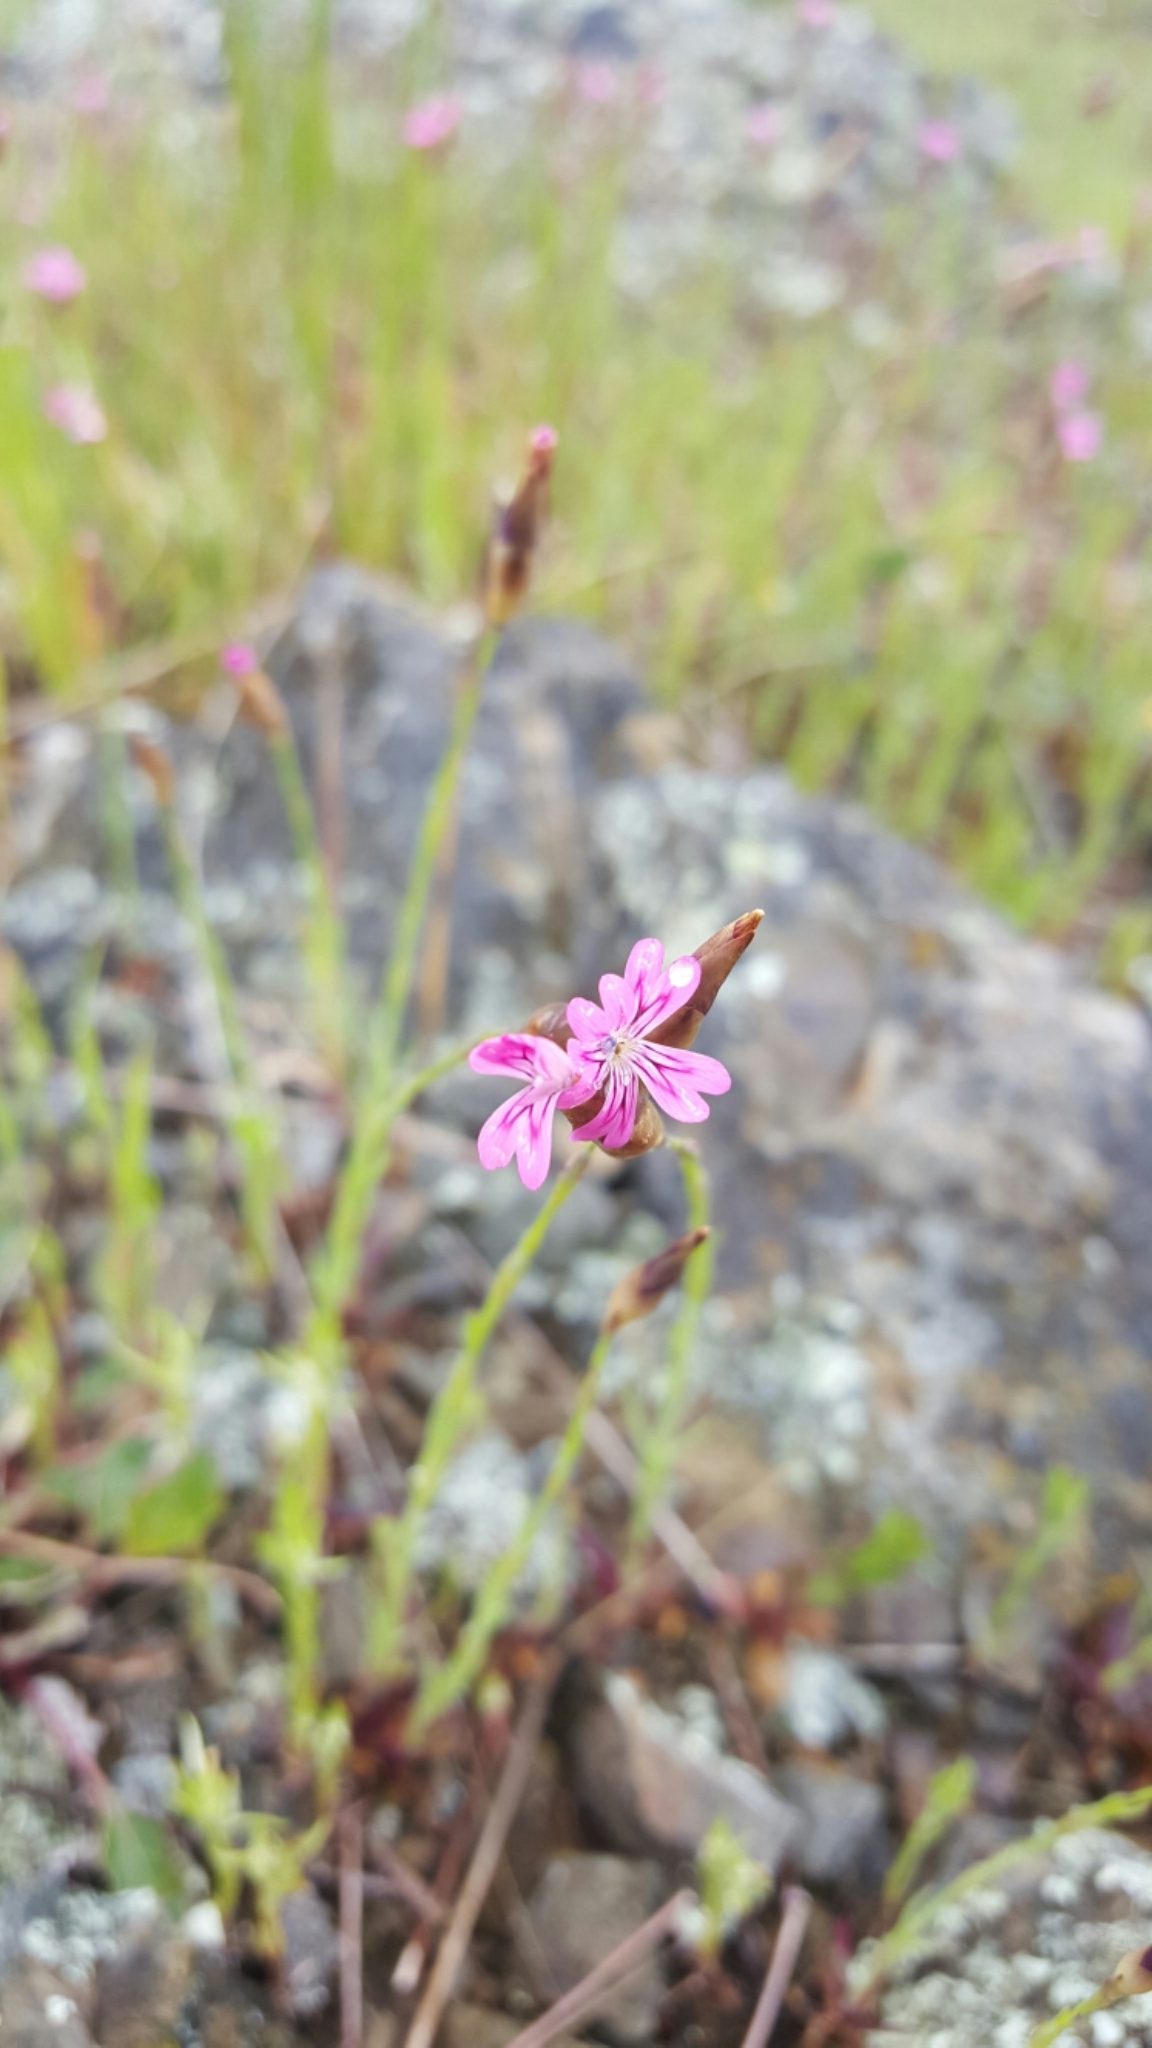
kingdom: Plantae
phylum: Tracheophyta
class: Magnoliopsida
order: Caryophyllales
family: Caryophyllaceae
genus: Petrorhagia
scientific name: Petrorhagia dubia
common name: Hairypink
